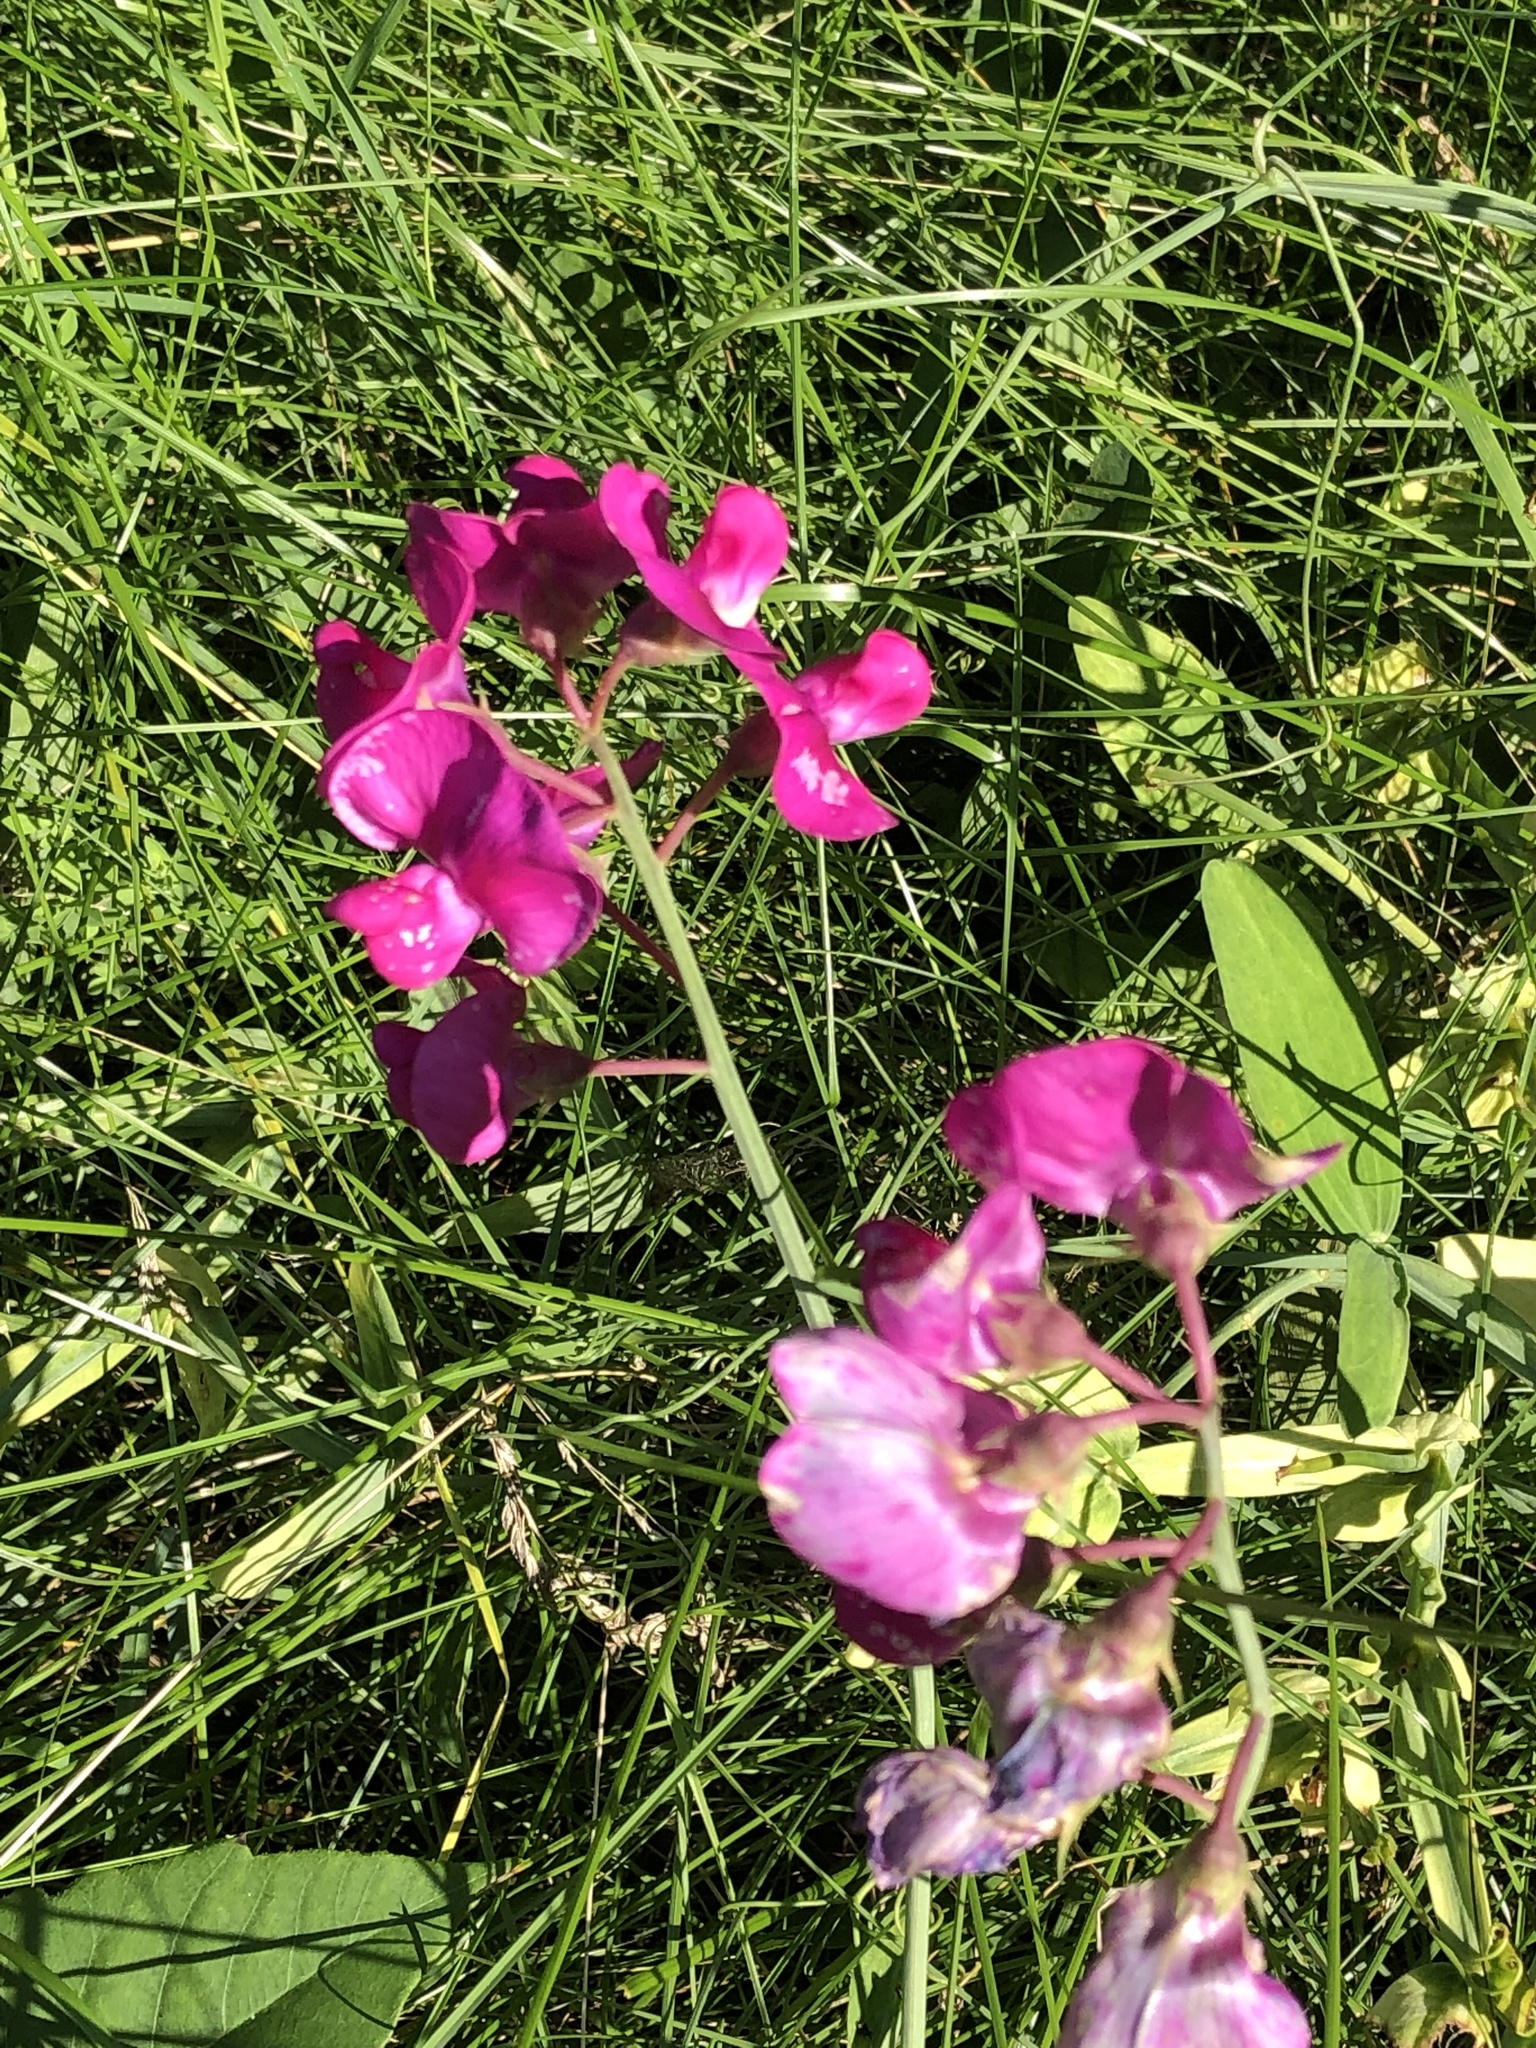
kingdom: Plantae
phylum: Tracheophyta
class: Magnoliopsida
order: Fabales
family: Fabaceae
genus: Lathyrus
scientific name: Lathyrus latifolius
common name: Perennial pea
